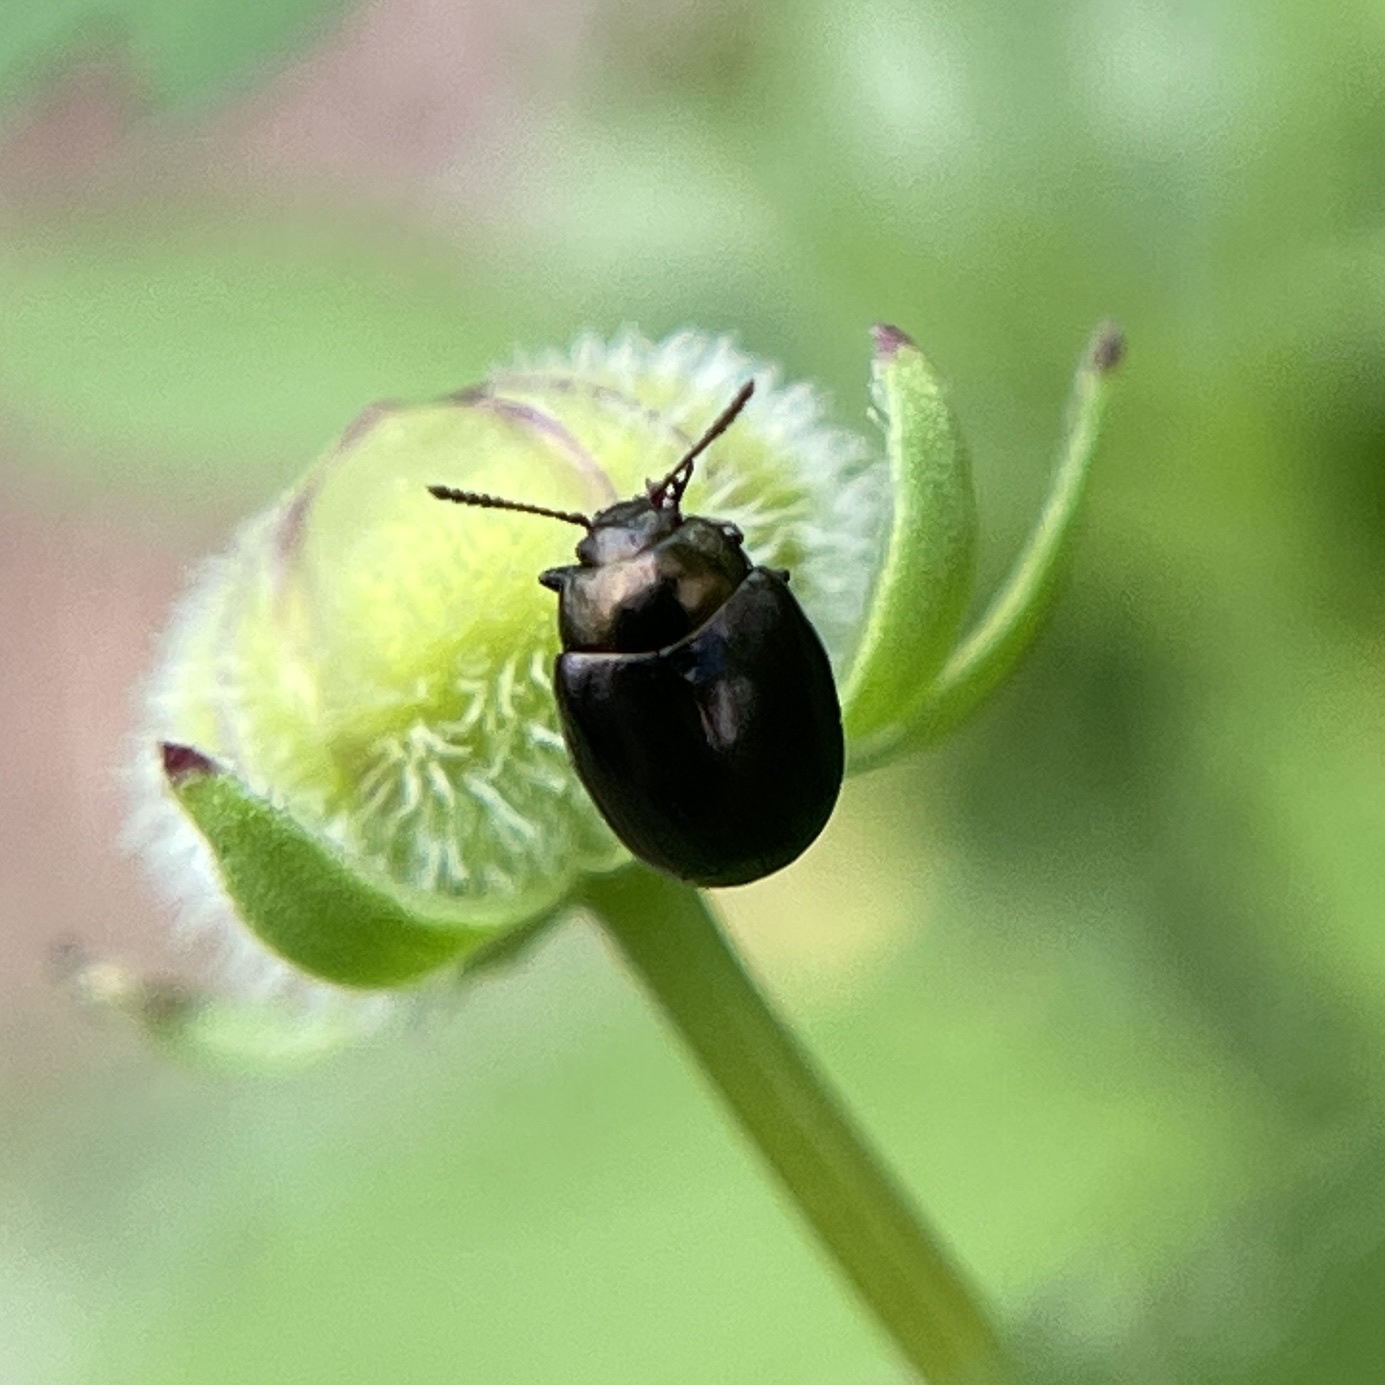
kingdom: Animalia
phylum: Arthropoda
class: Insecta
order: Coleoptera
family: Chrysomelidae
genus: Phaedon
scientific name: Phaedon desotonis
